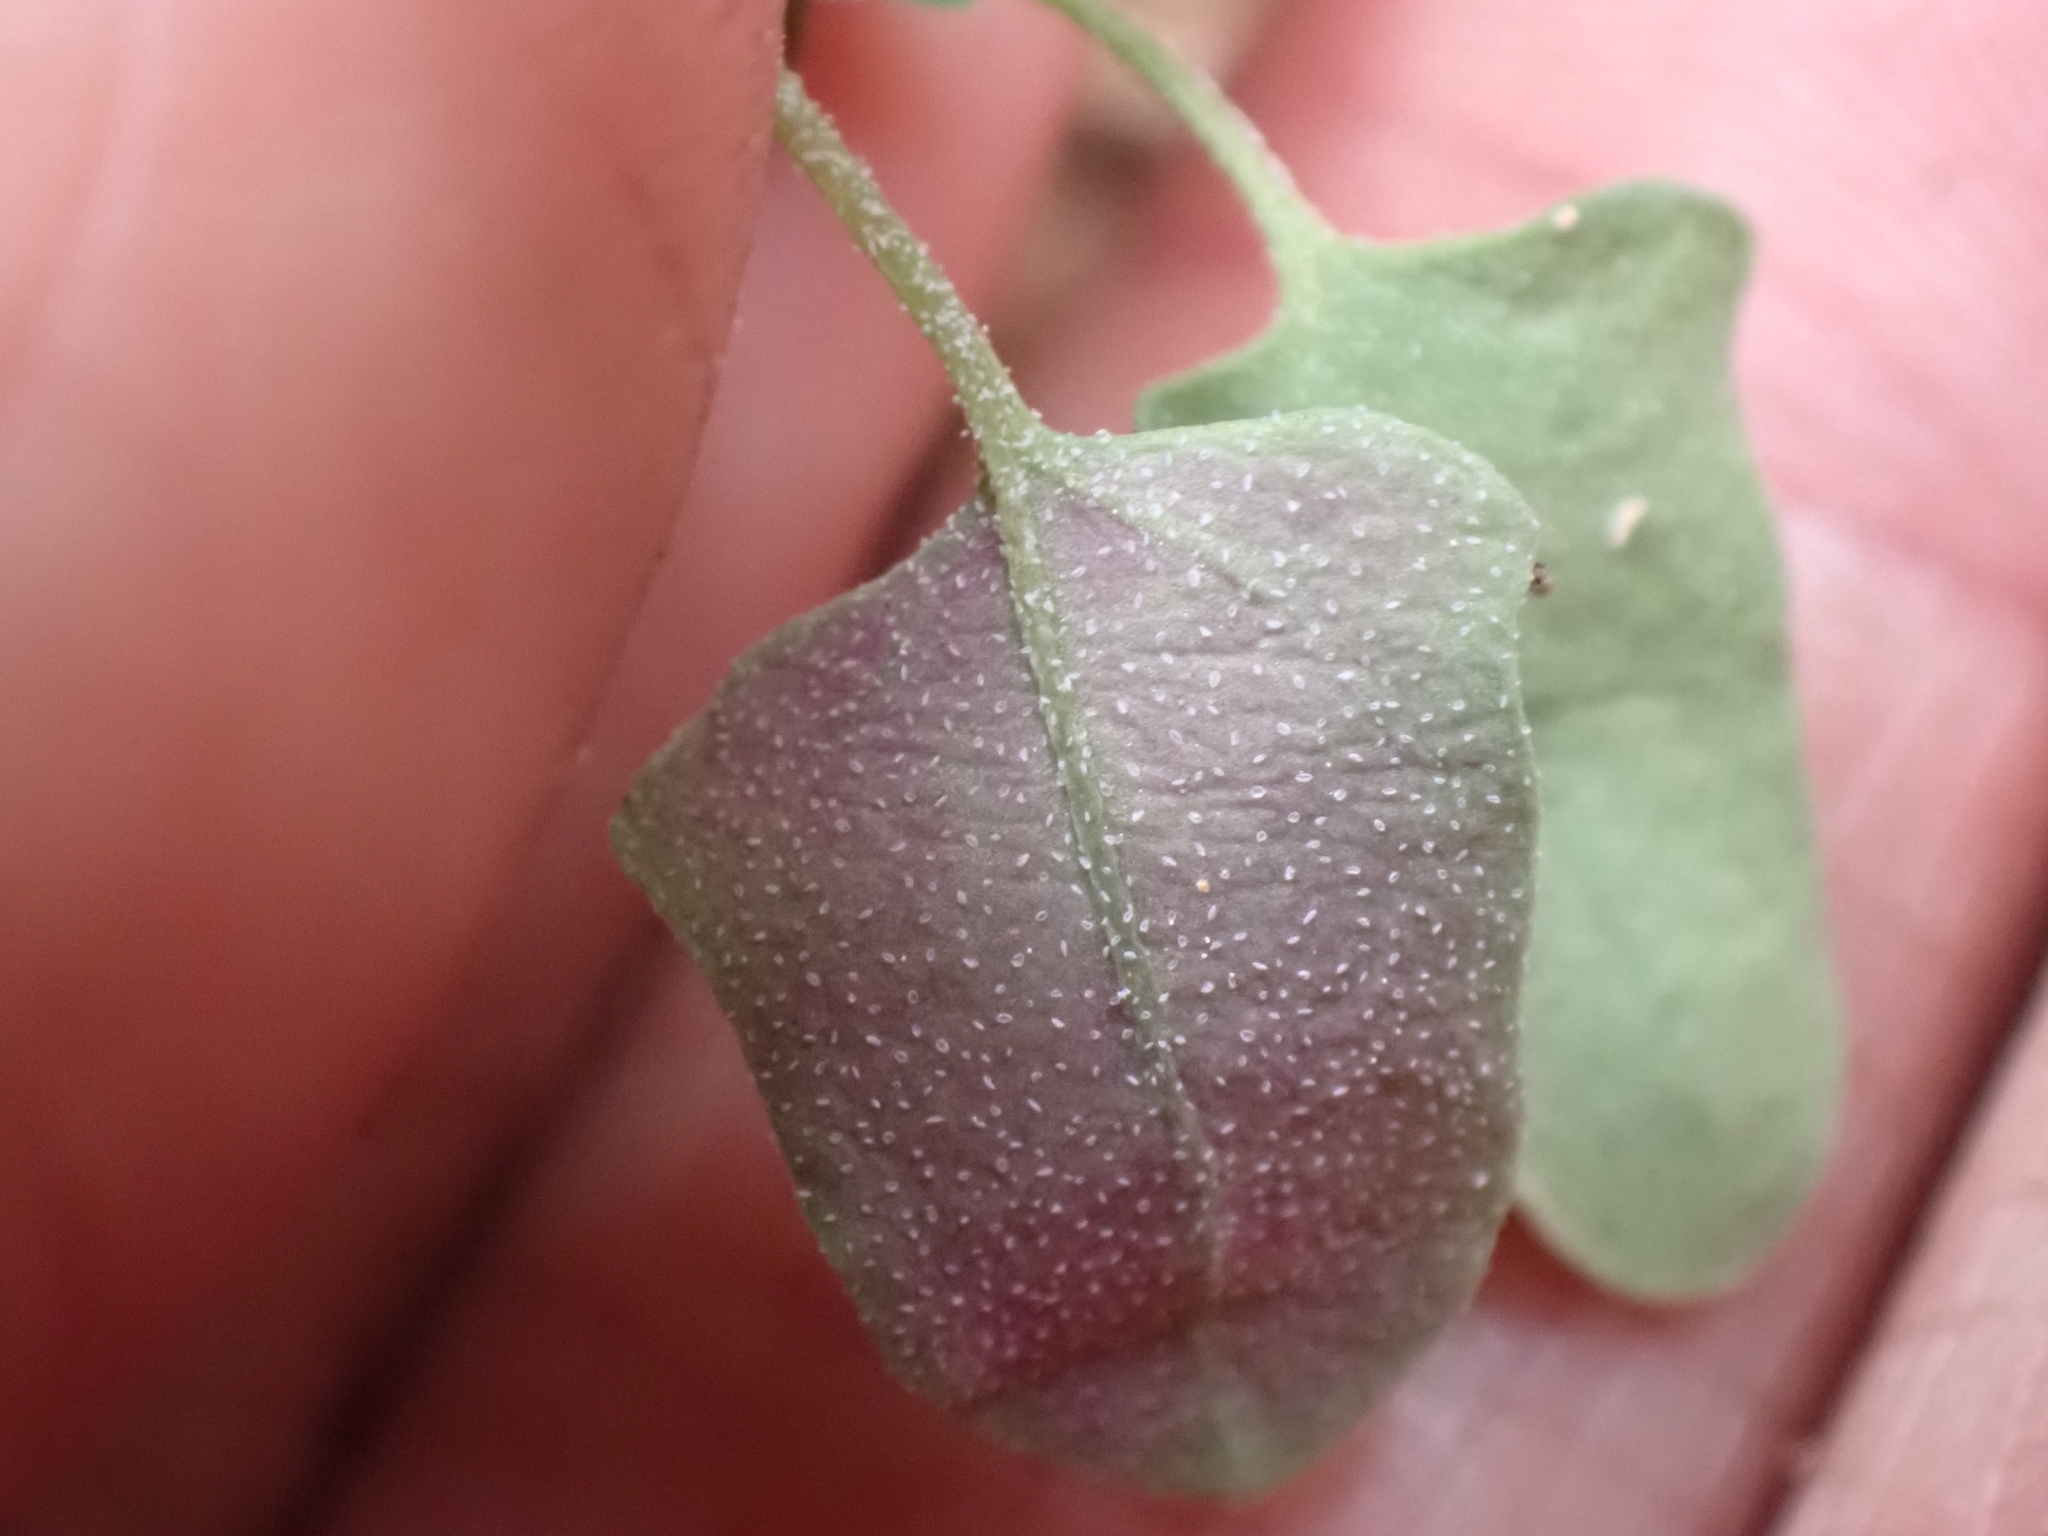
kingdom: Plantae
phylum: Tracheophyta
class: Magnoliopsida
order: Caryophyllales
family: Amaranthaceae
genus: Chenopodium
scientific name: Chenopodium album
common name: Fat-hen
